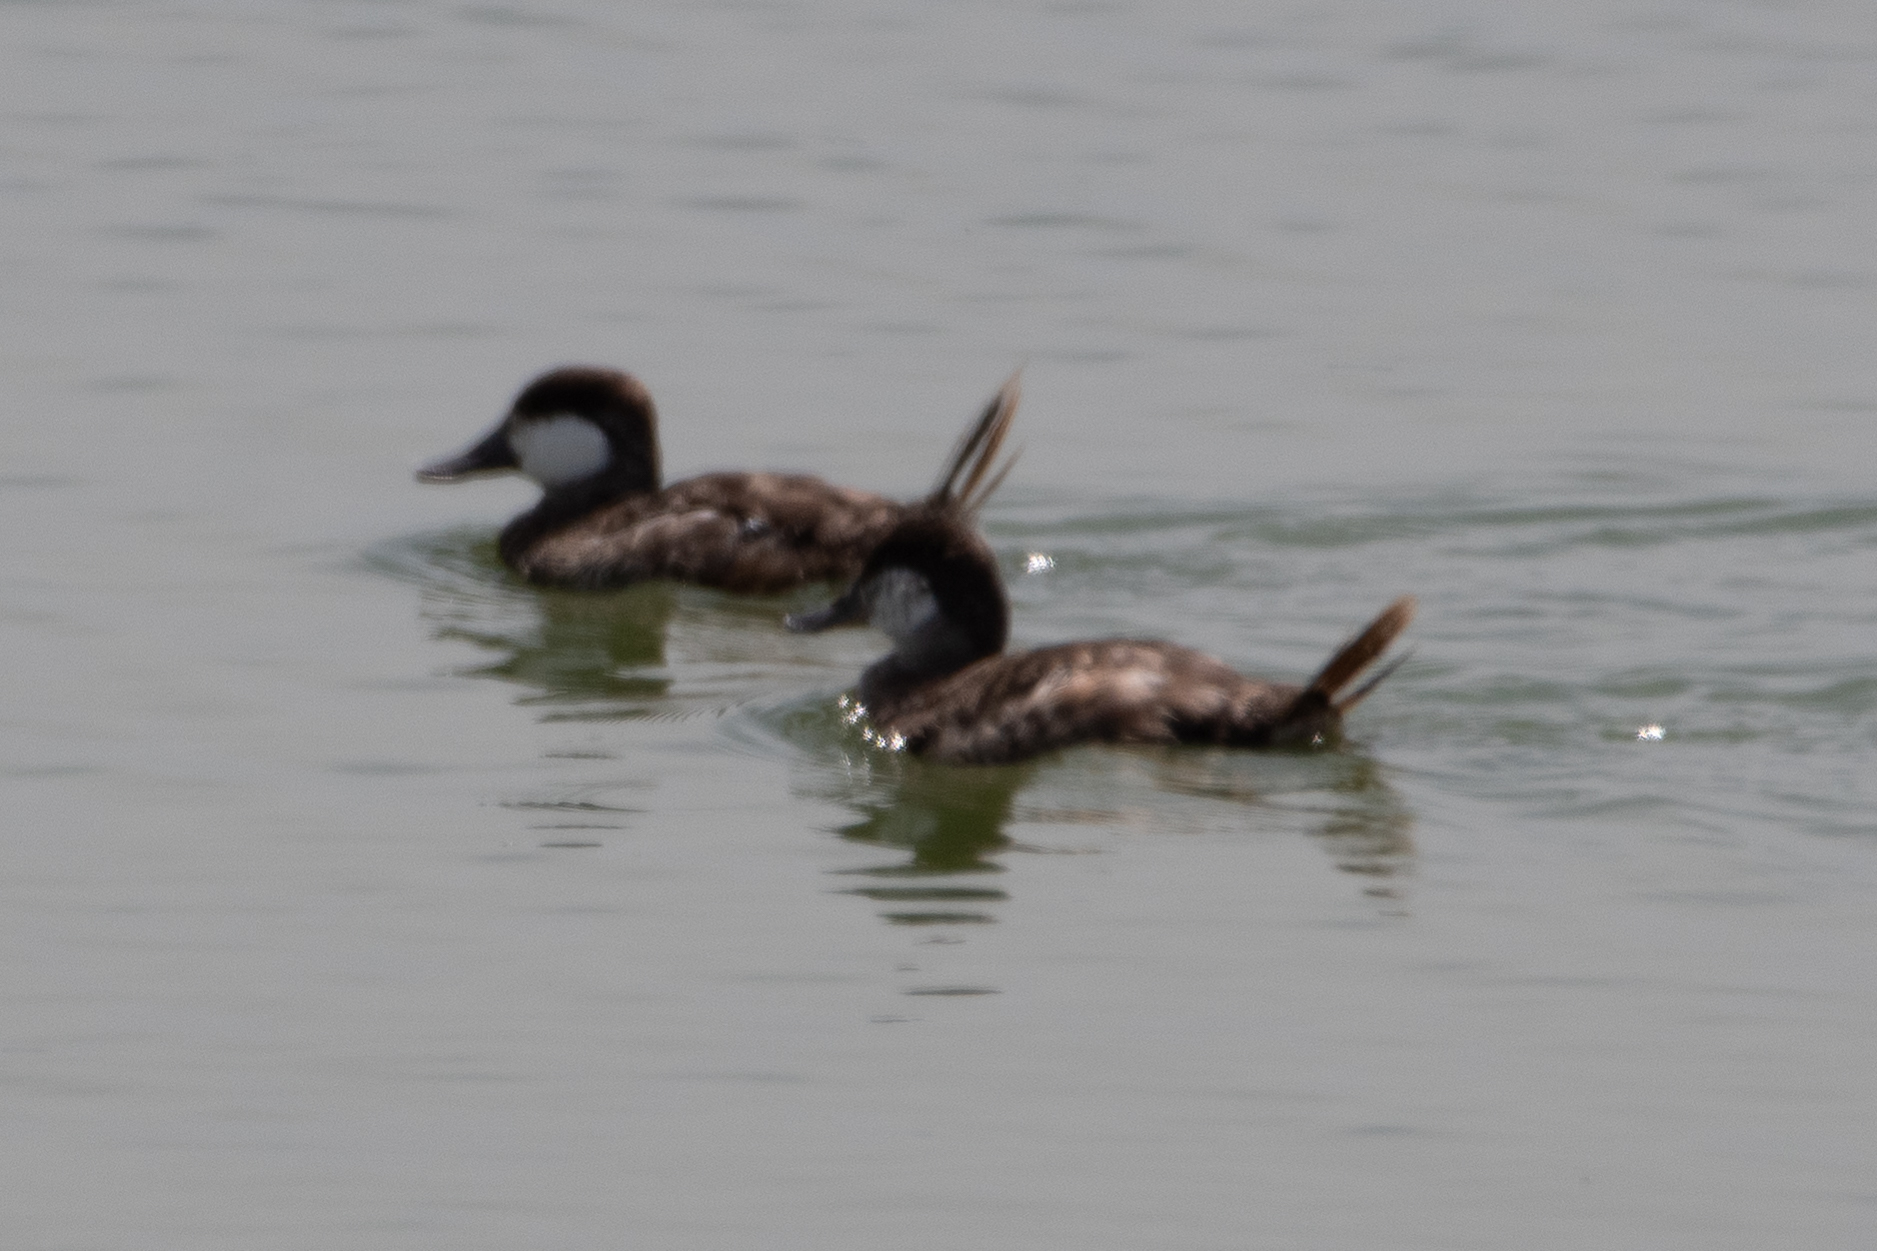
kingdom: Animalia
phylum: Chordata
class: Aves
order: Anseriformes
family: Anatidae
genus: Oxyura
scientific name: Oxyura jamaicensis
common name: Ruddy duck
